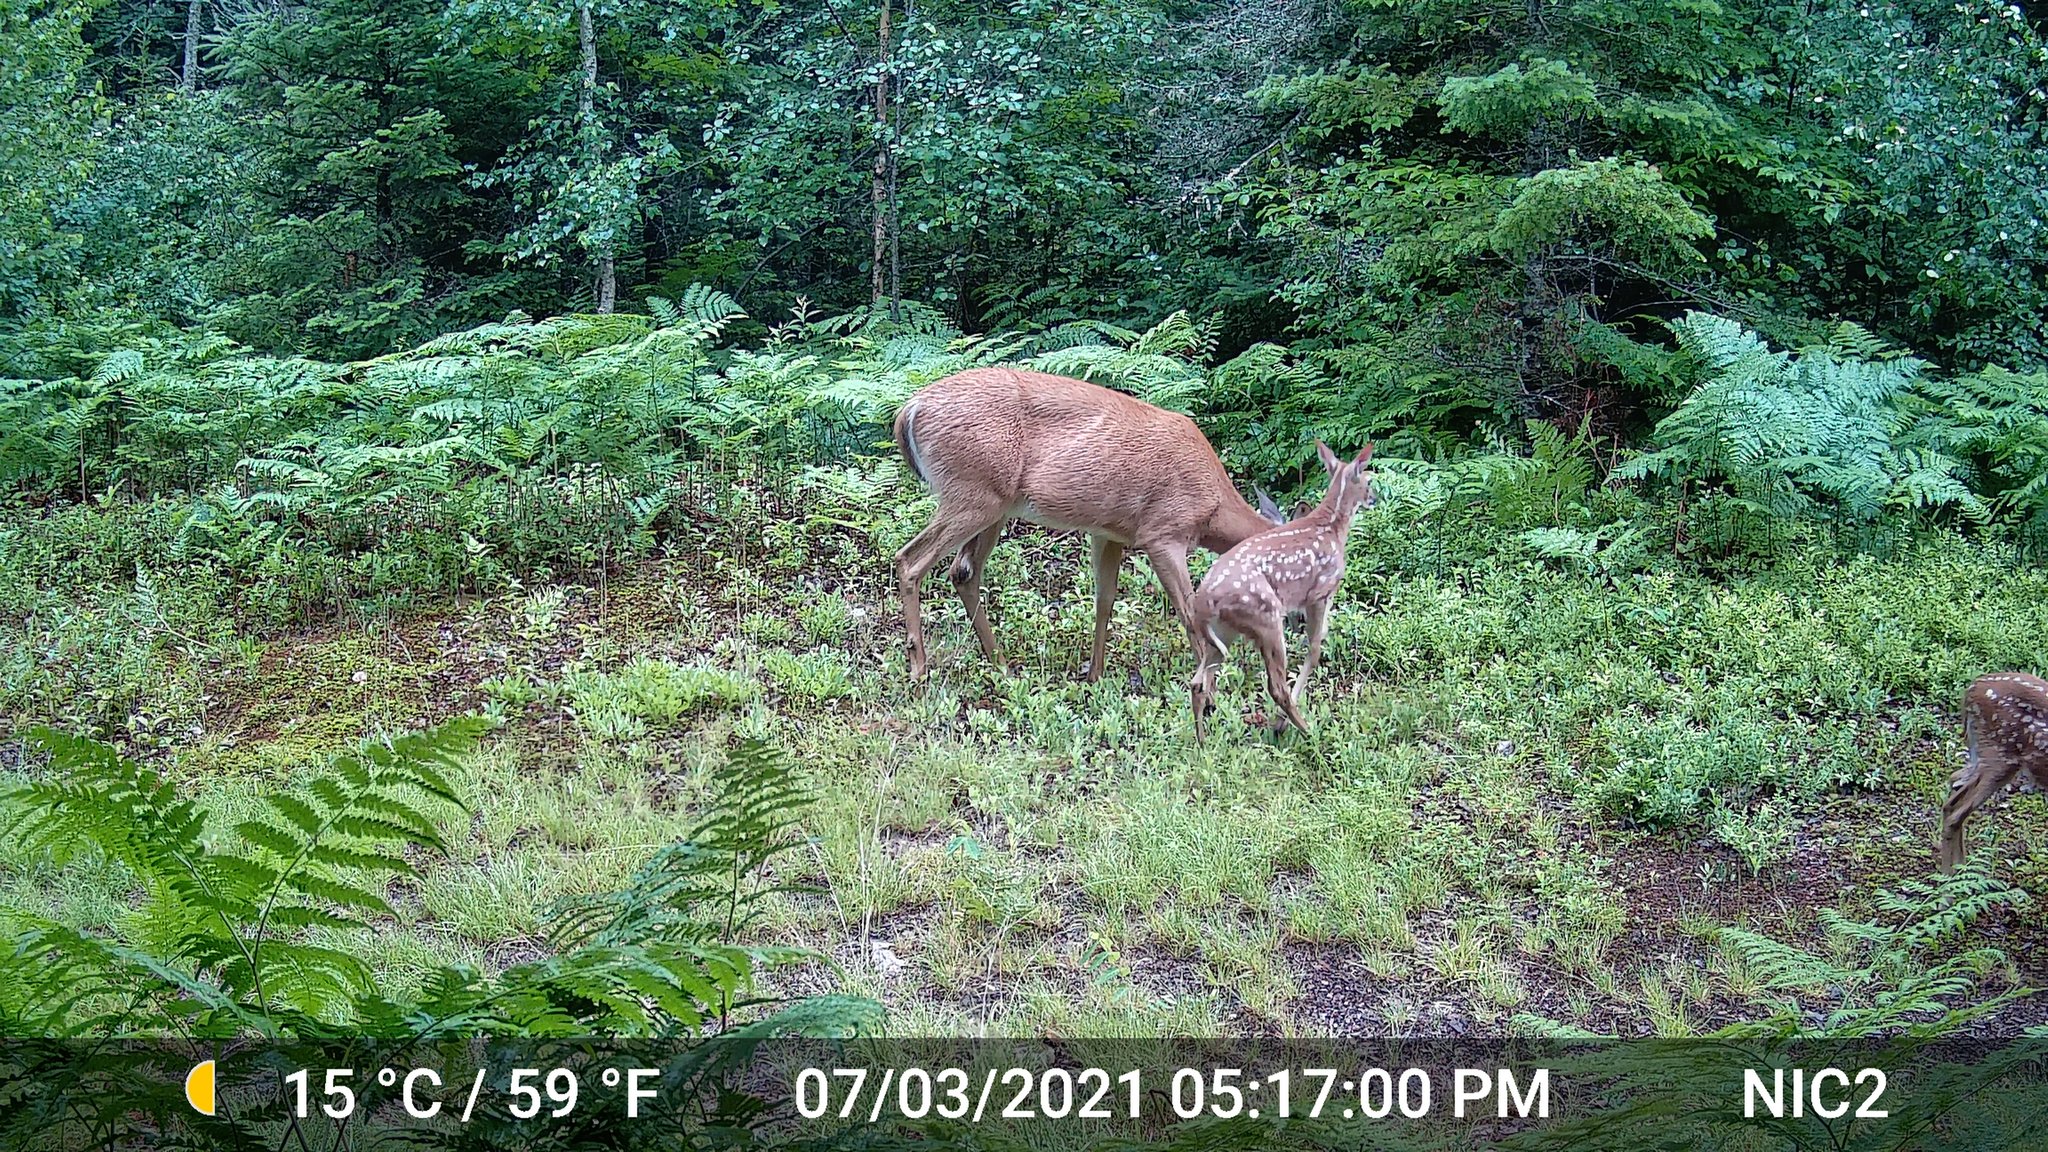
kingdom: Animalia
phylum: Chordata
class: Mammalia
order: Artiodactyla
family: Cervidae
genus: Odocoileus
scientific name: Odocoileus virginianus
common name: White-tailed deer
